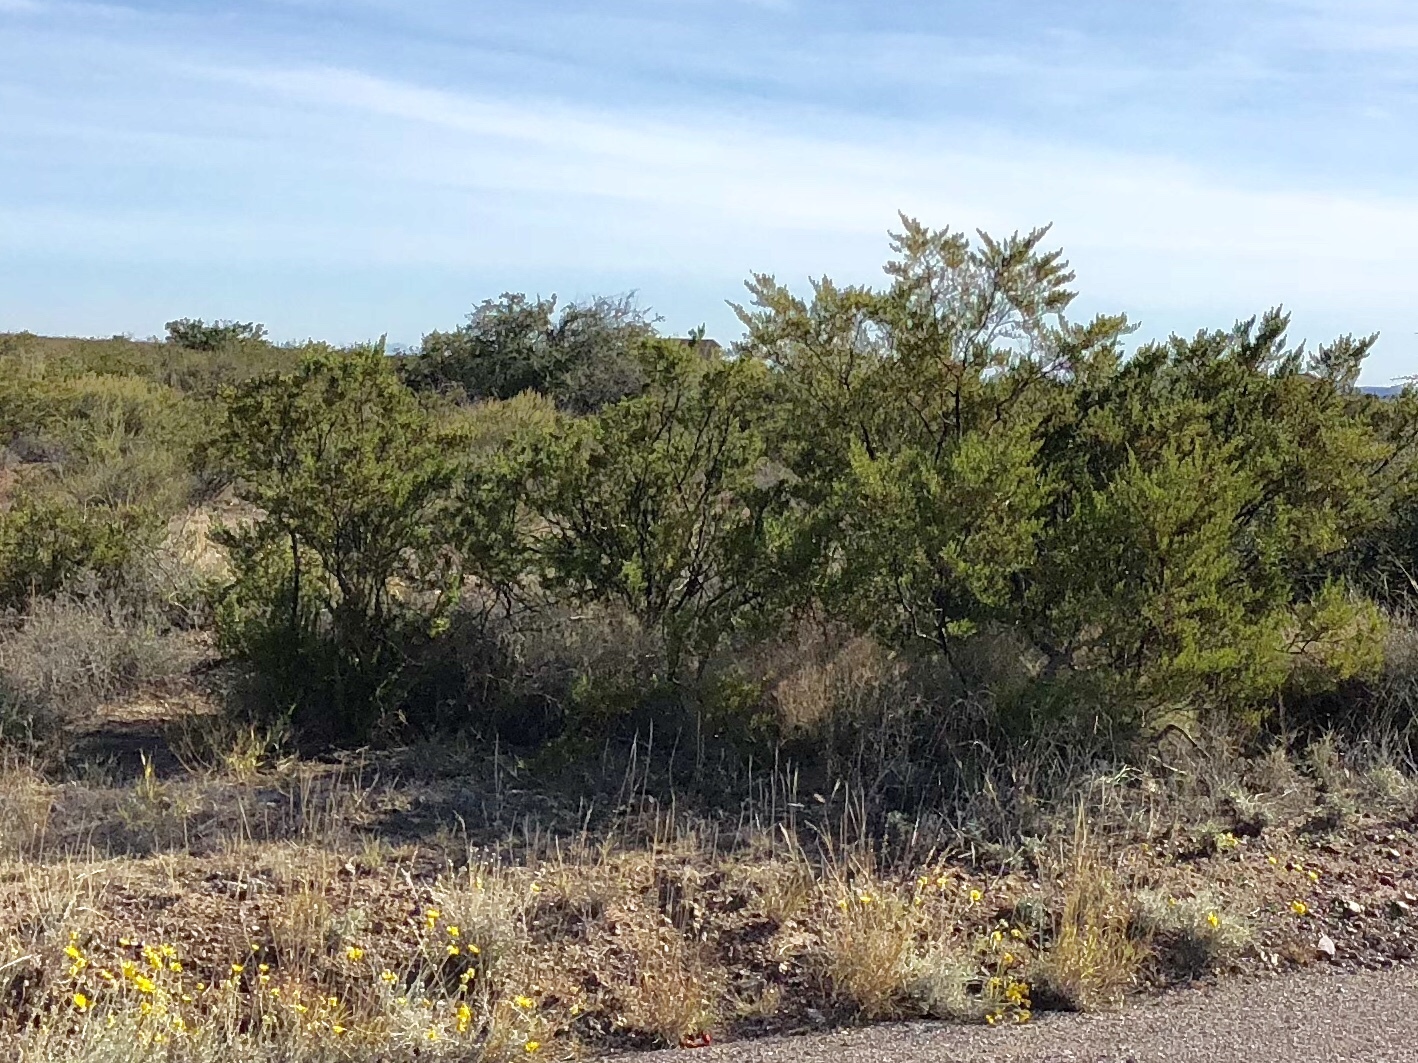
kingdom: Plantae
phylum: Tracheophyta
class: Magnoliopsida
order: Zygophyllales
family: Zygophyllaceae
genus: Larrea
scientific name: Larrea tridentata
